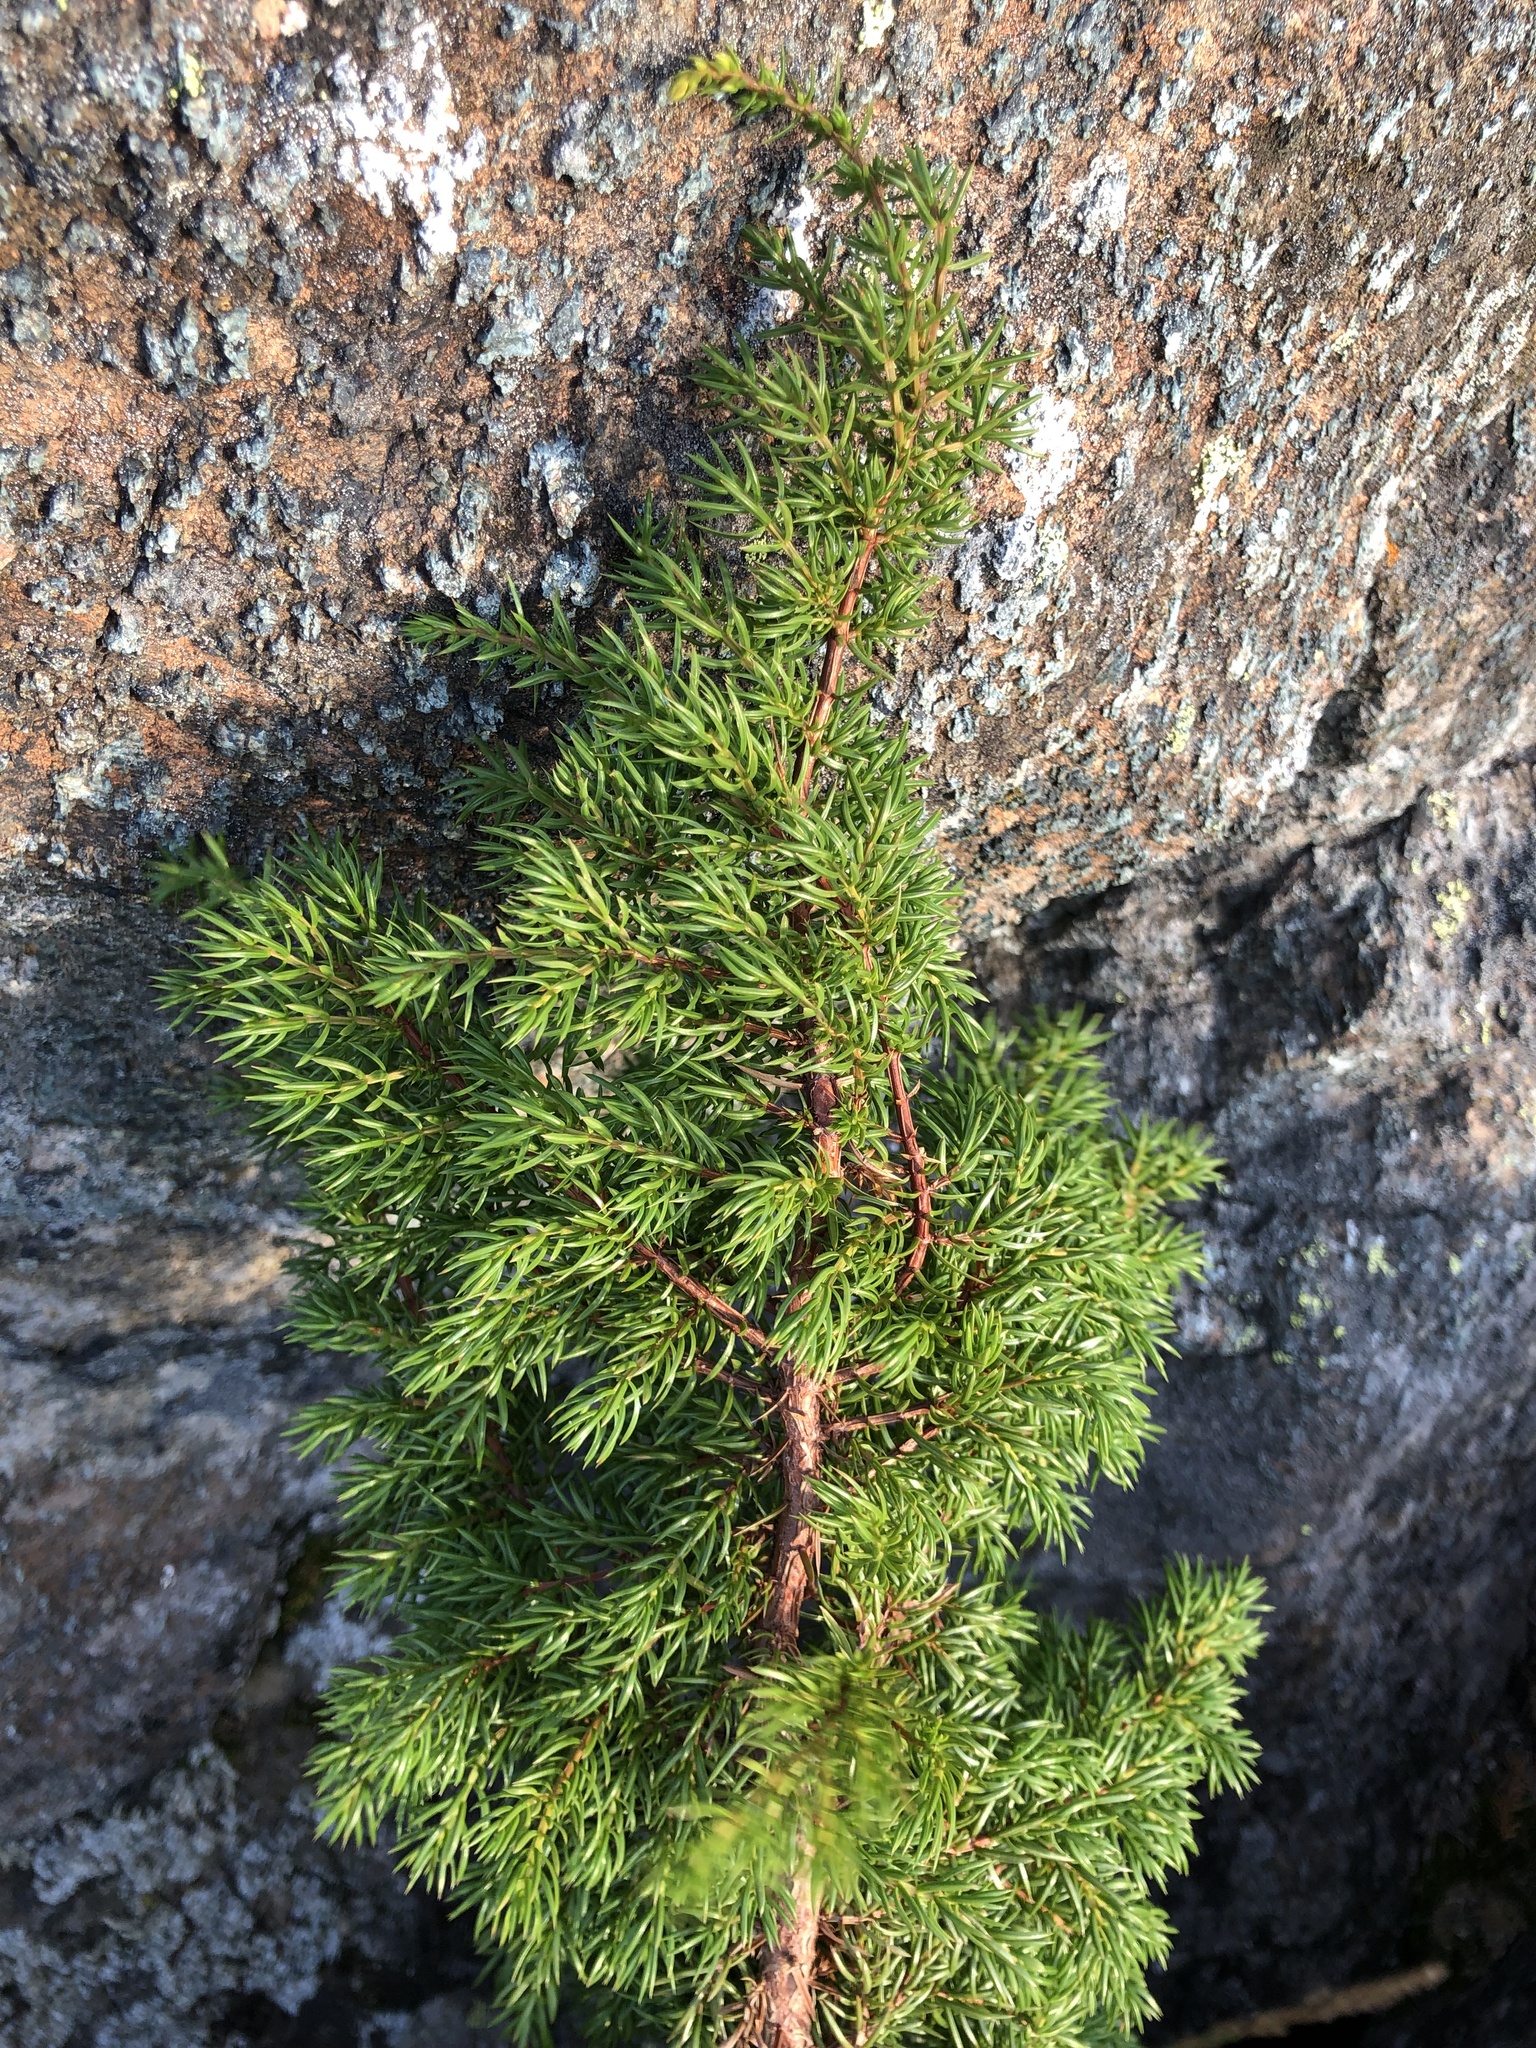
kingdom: Plantae
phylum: Tracheophyta
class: Pinopsida
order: Pinales
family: Cupressaceae
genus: Juniperus
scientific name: Juniperus communis
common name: Common juniper
